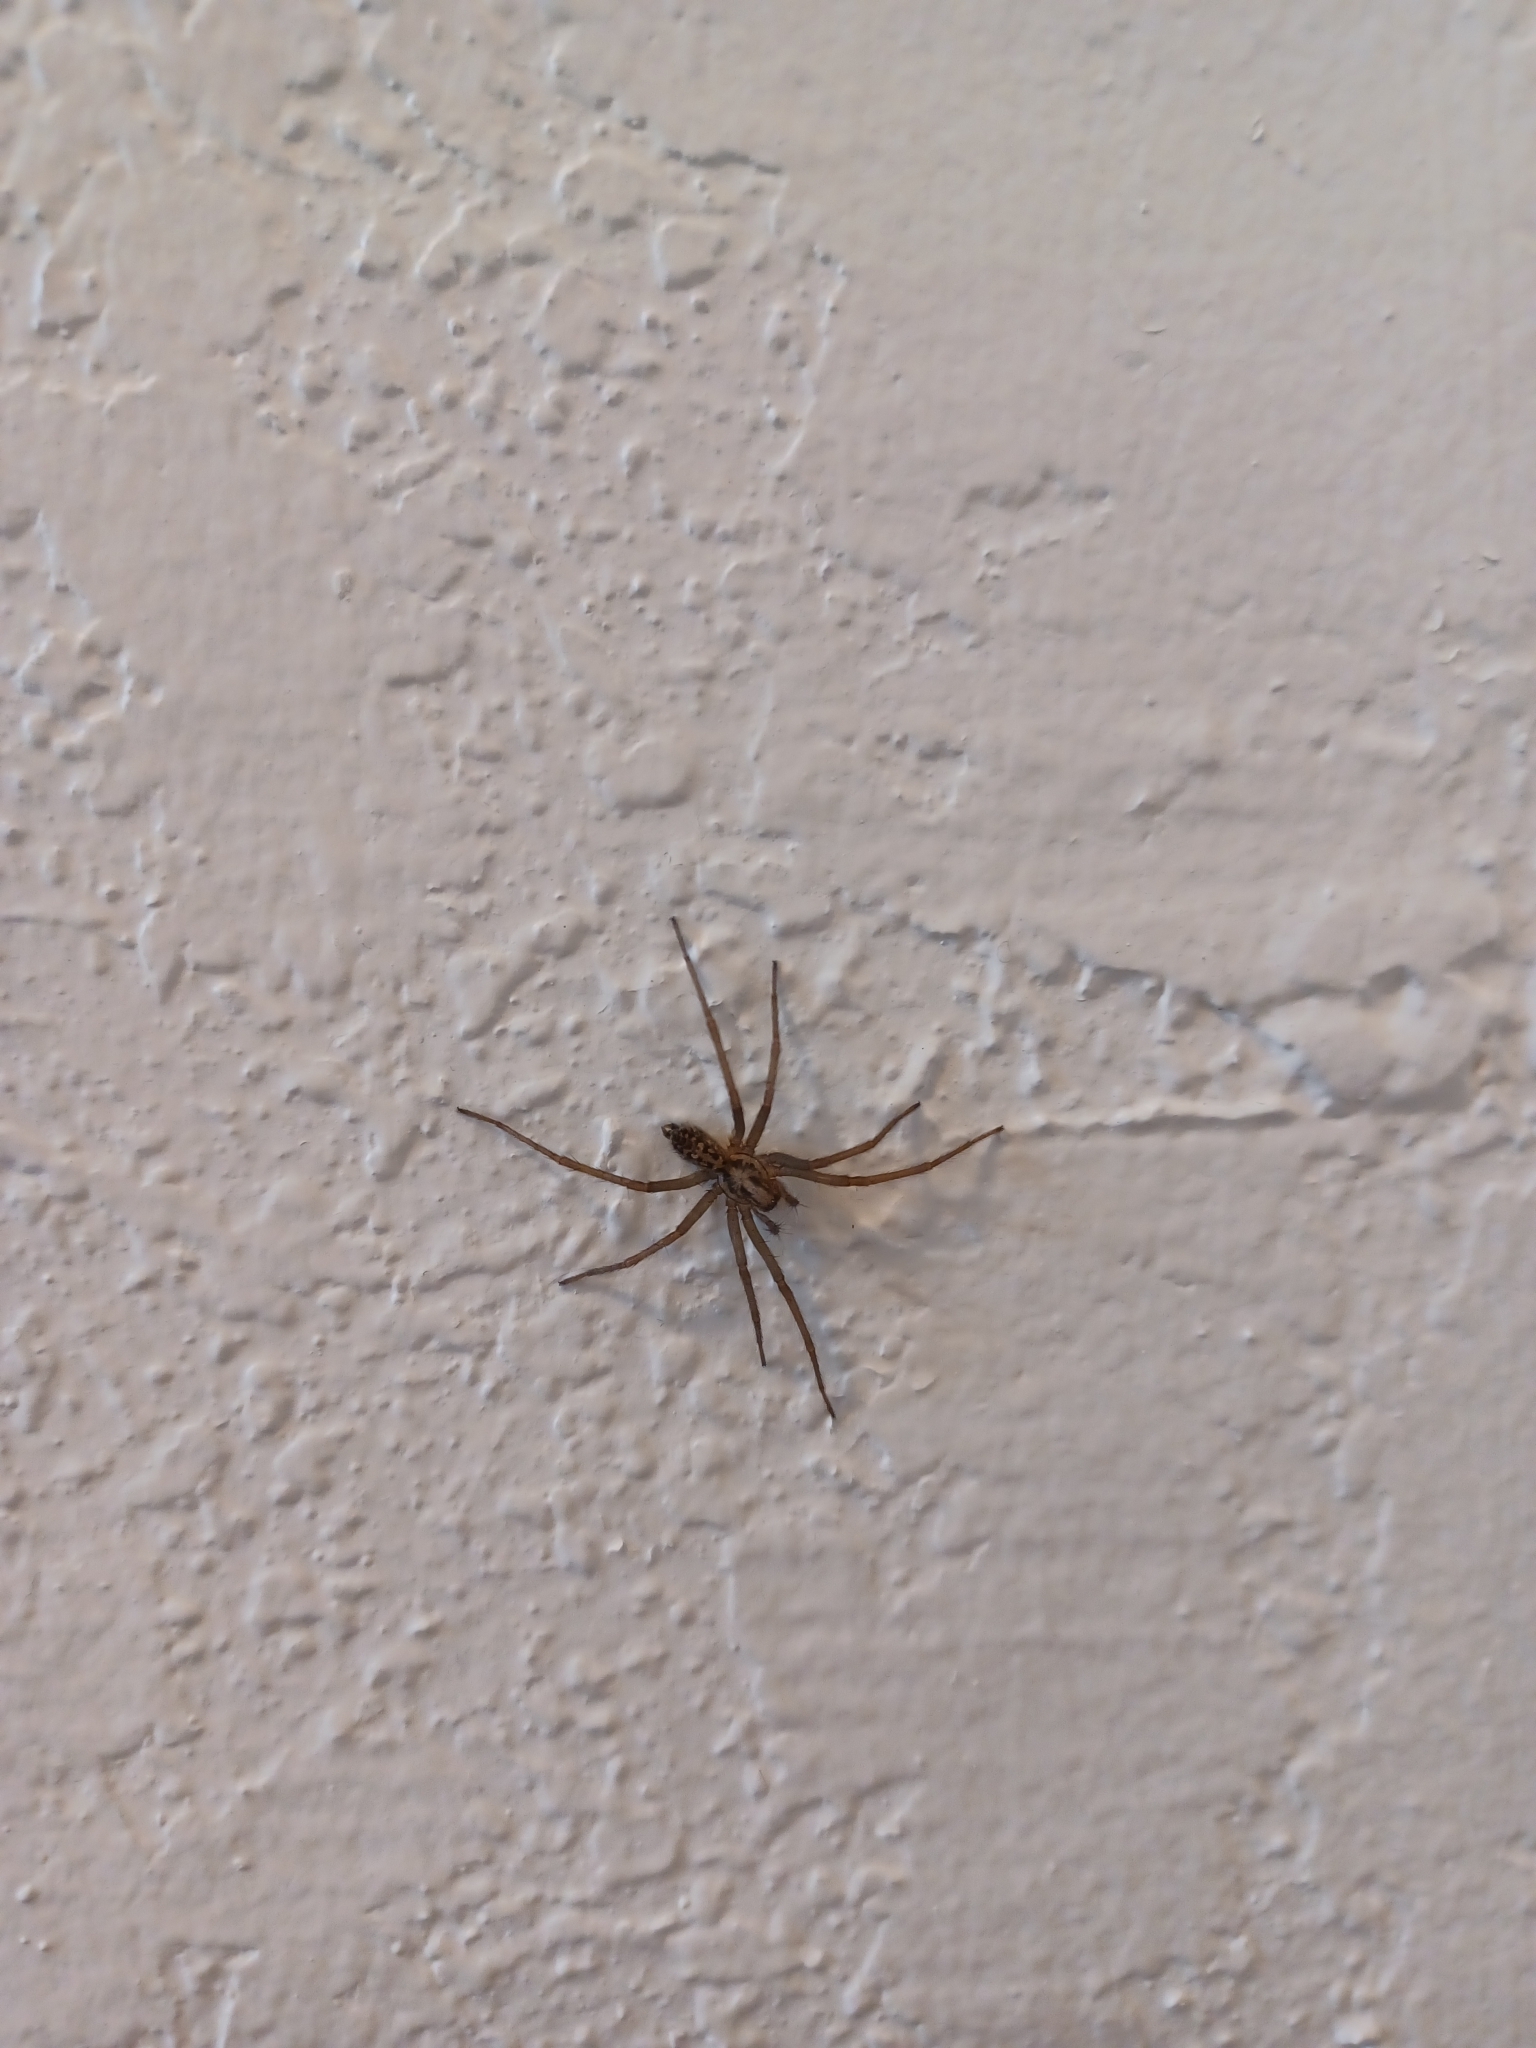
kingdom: Animalia
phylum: Arthropoda
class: Arachnida
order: Araneae
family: Agelenidae
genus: Eratigena
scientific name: Eratigena duellica
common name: Giant house spider
